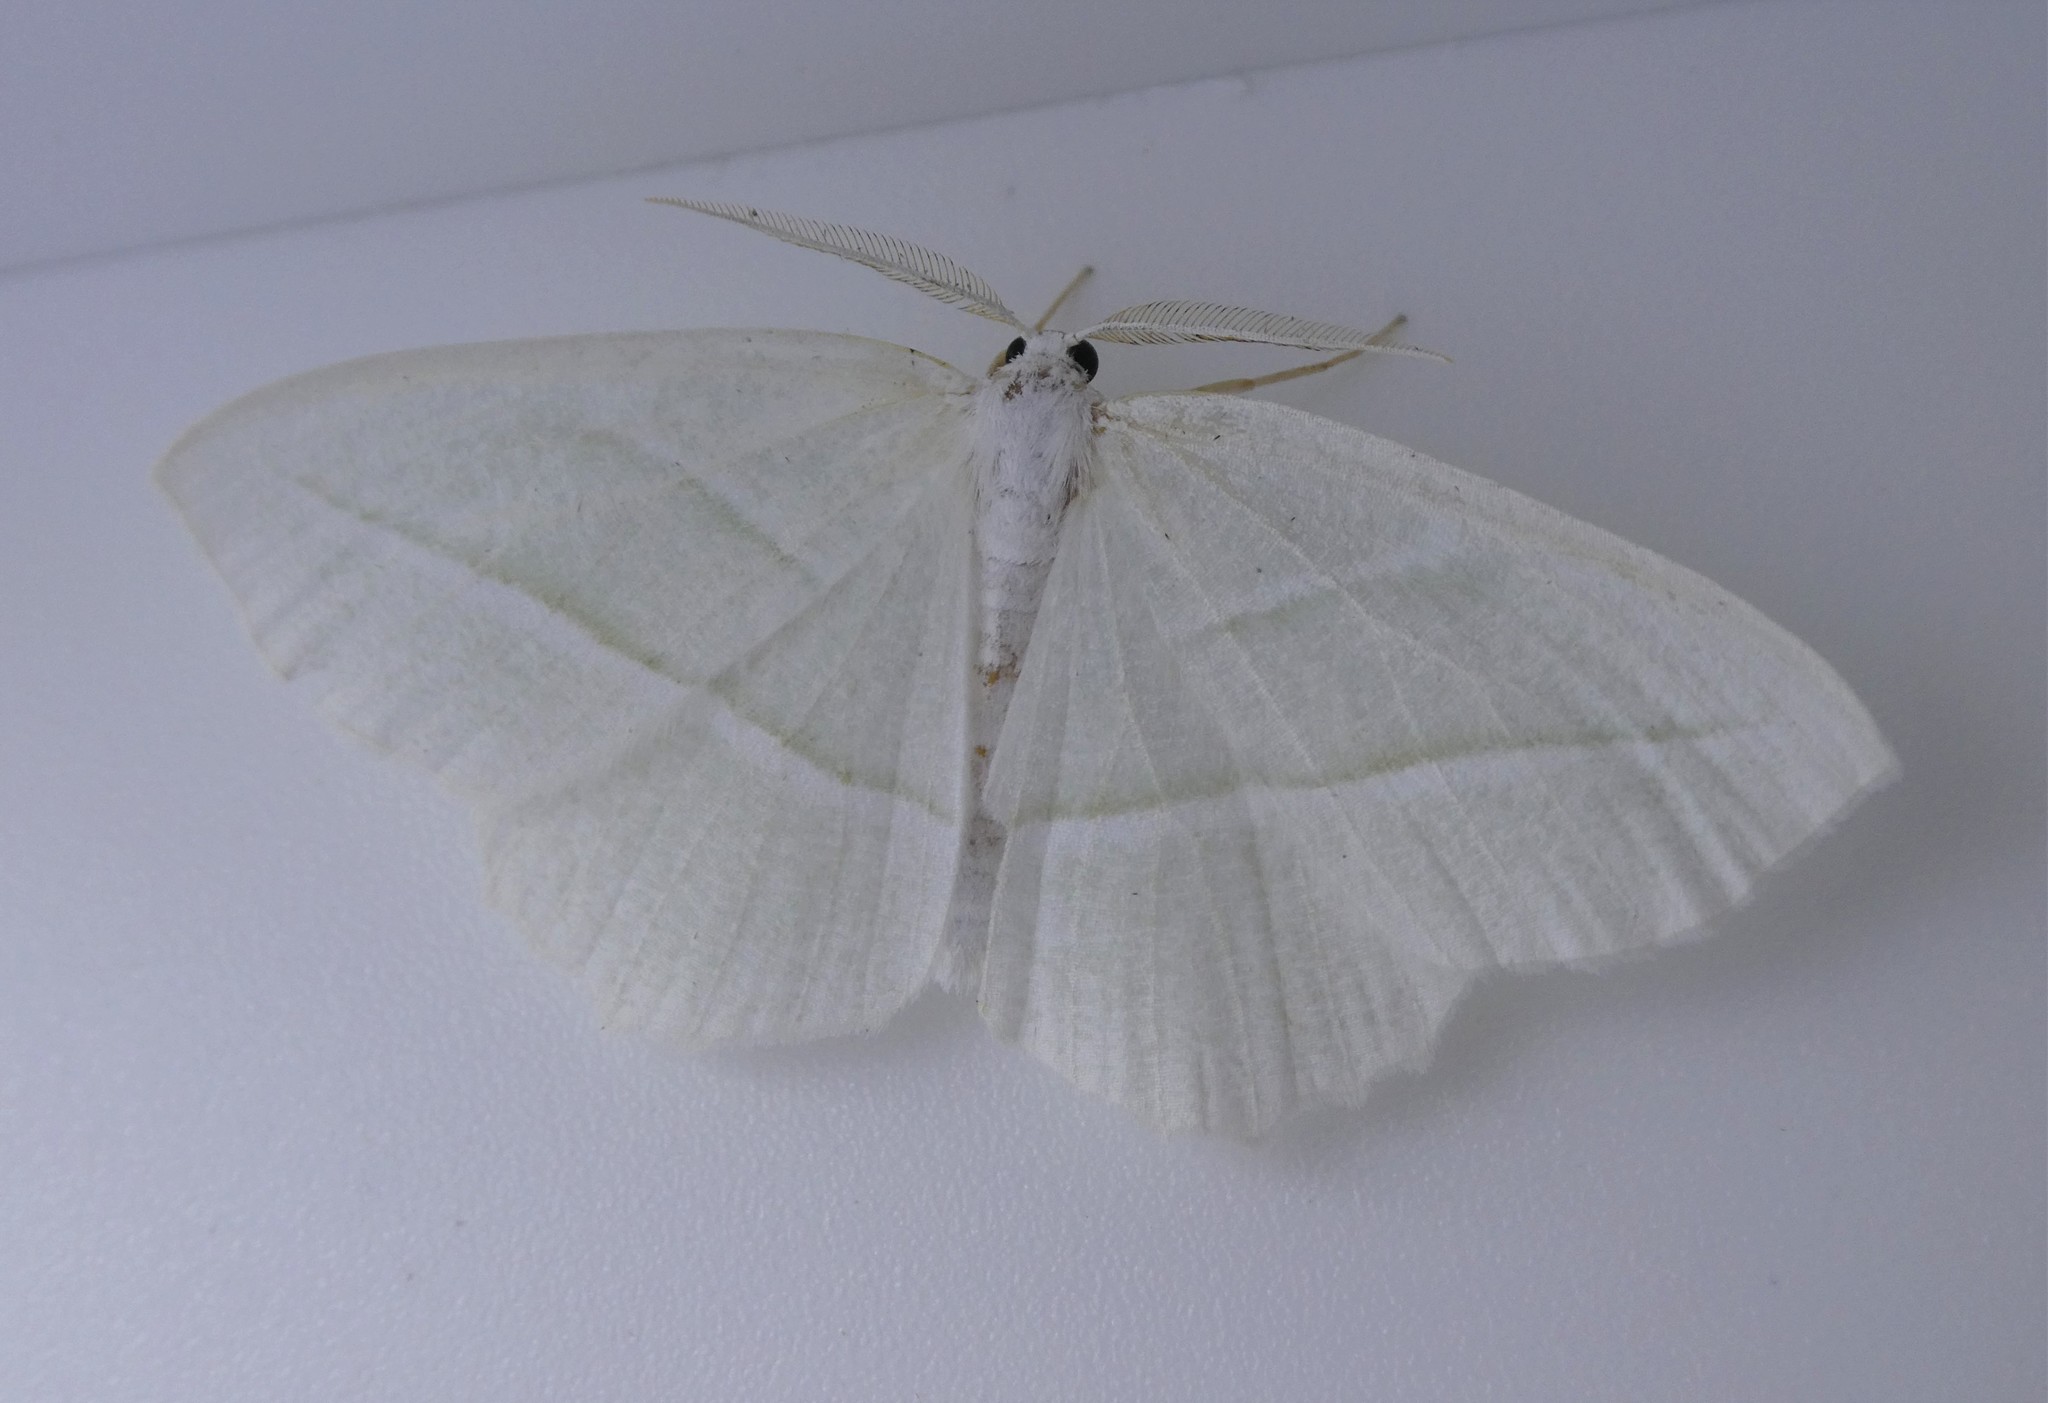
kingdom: Animalia
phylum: Arthropoda
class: Insecta
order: Lepidoptera
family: Geometridae
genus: Campaea
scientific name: Campaea perlata
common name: Fringed looper
